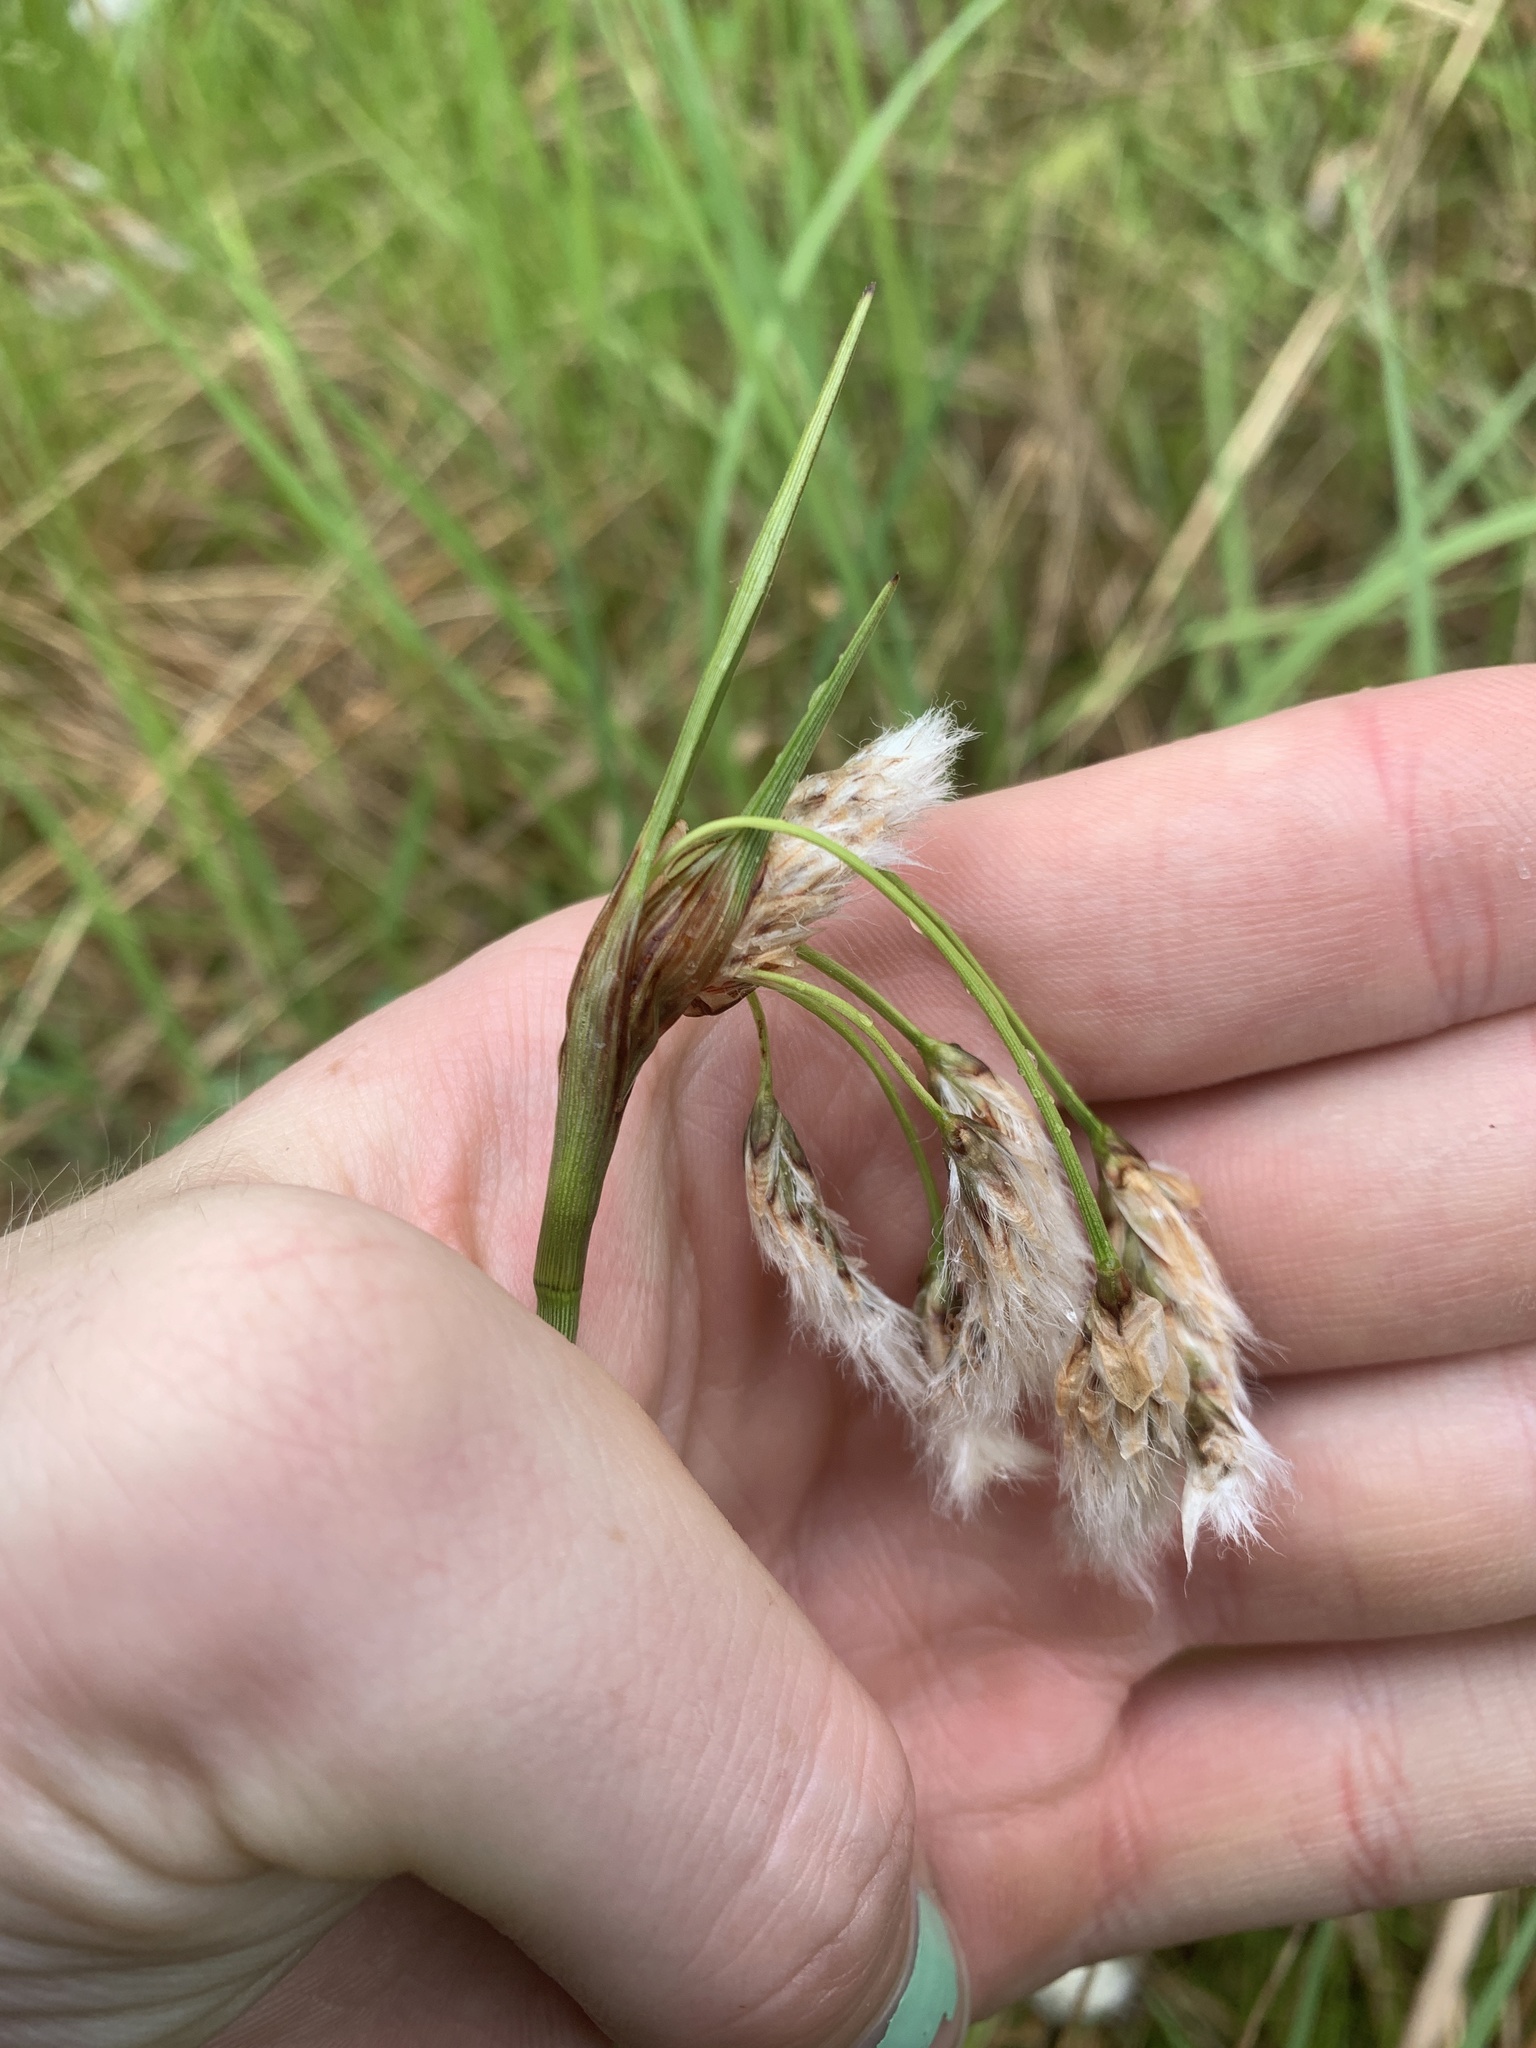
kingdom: Plantae
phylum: Tracheophyta
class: Liliopsida
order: Poales
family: Cyperaceae
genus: Eriophorum
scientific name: Eriophorum angustifolium
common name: Common cottongrass
